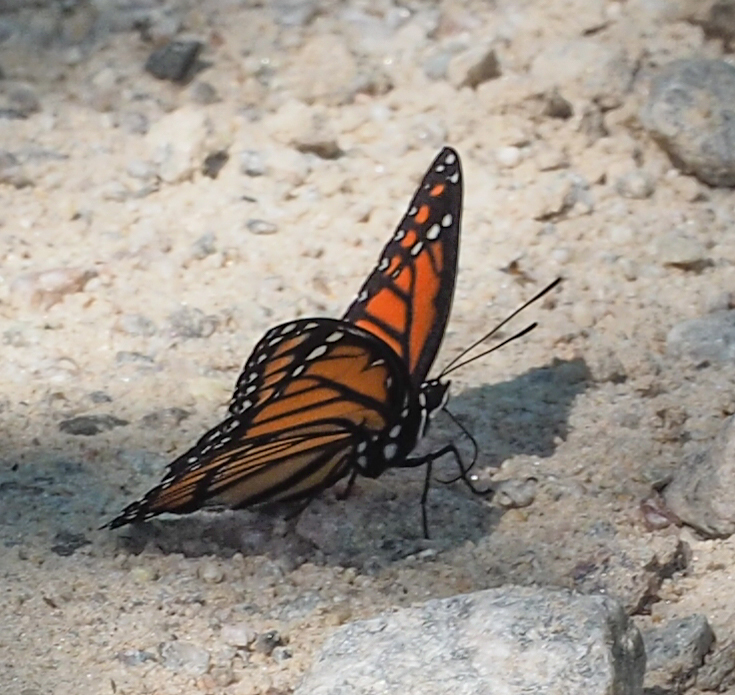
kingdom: Animalia
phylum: Arthropoda
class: Insecta
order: Lepidoptera
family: Nymphalidae
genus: Limenitis
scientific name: Limenitis archippus
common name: Viceroy
